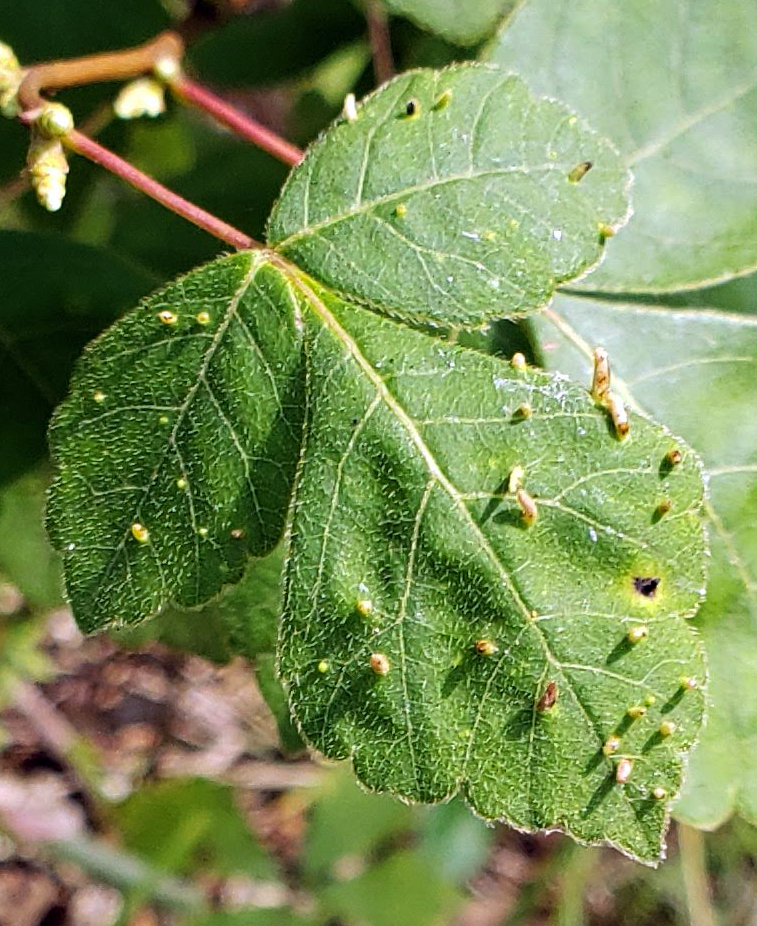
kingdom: Animalia
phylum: Arthropoda
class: Arachnida
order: Trombidiformes
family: Eriophyidae
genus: Aculops
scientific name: Aculops
